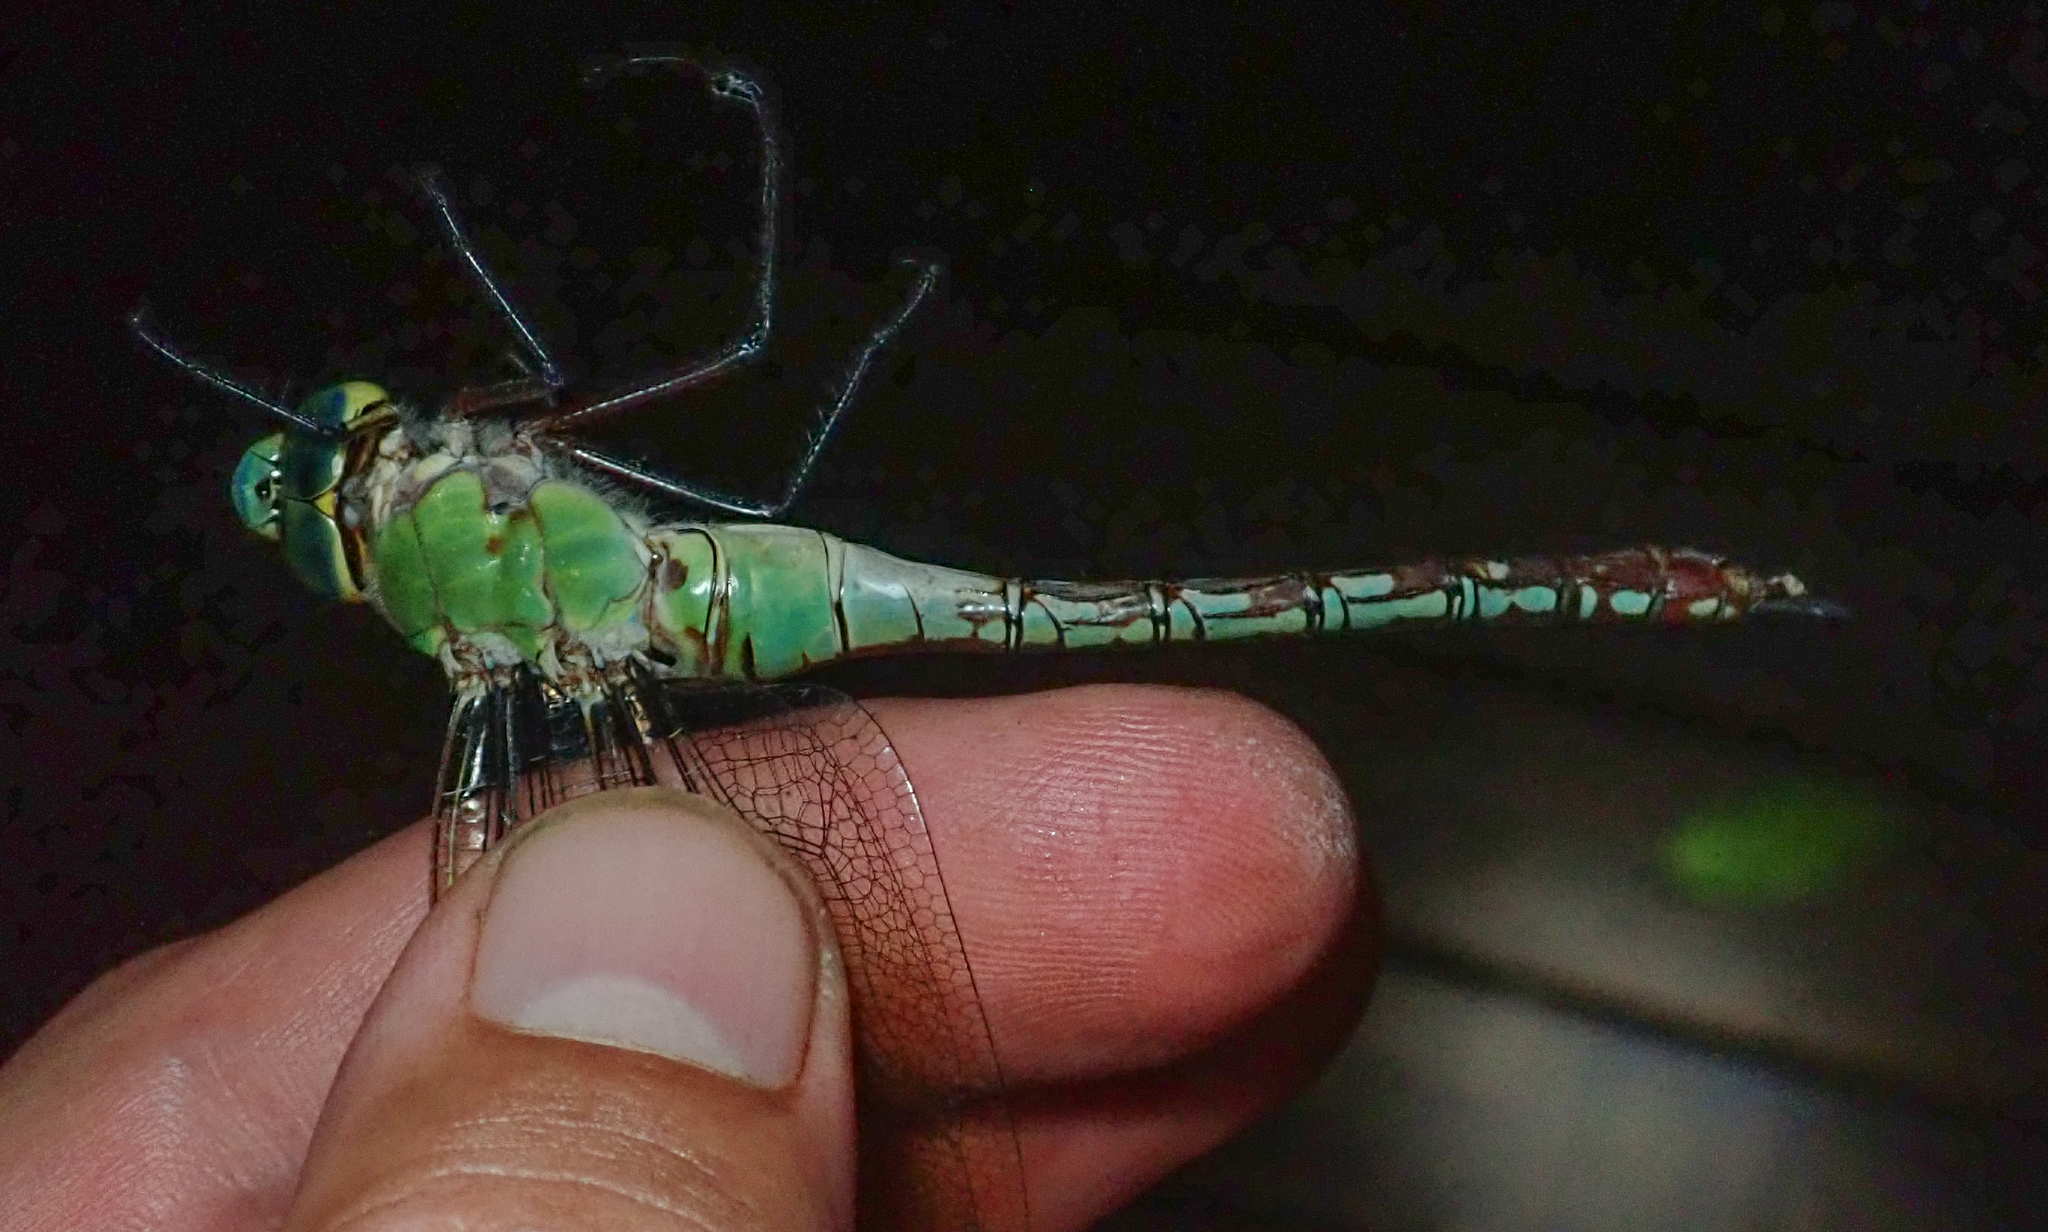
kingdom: Animalia
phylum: Arthropoda
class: Insecta
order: Odonata
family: Aeshnidae
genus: Anax
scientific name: Anax imperator
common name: Emperor dragonfly
